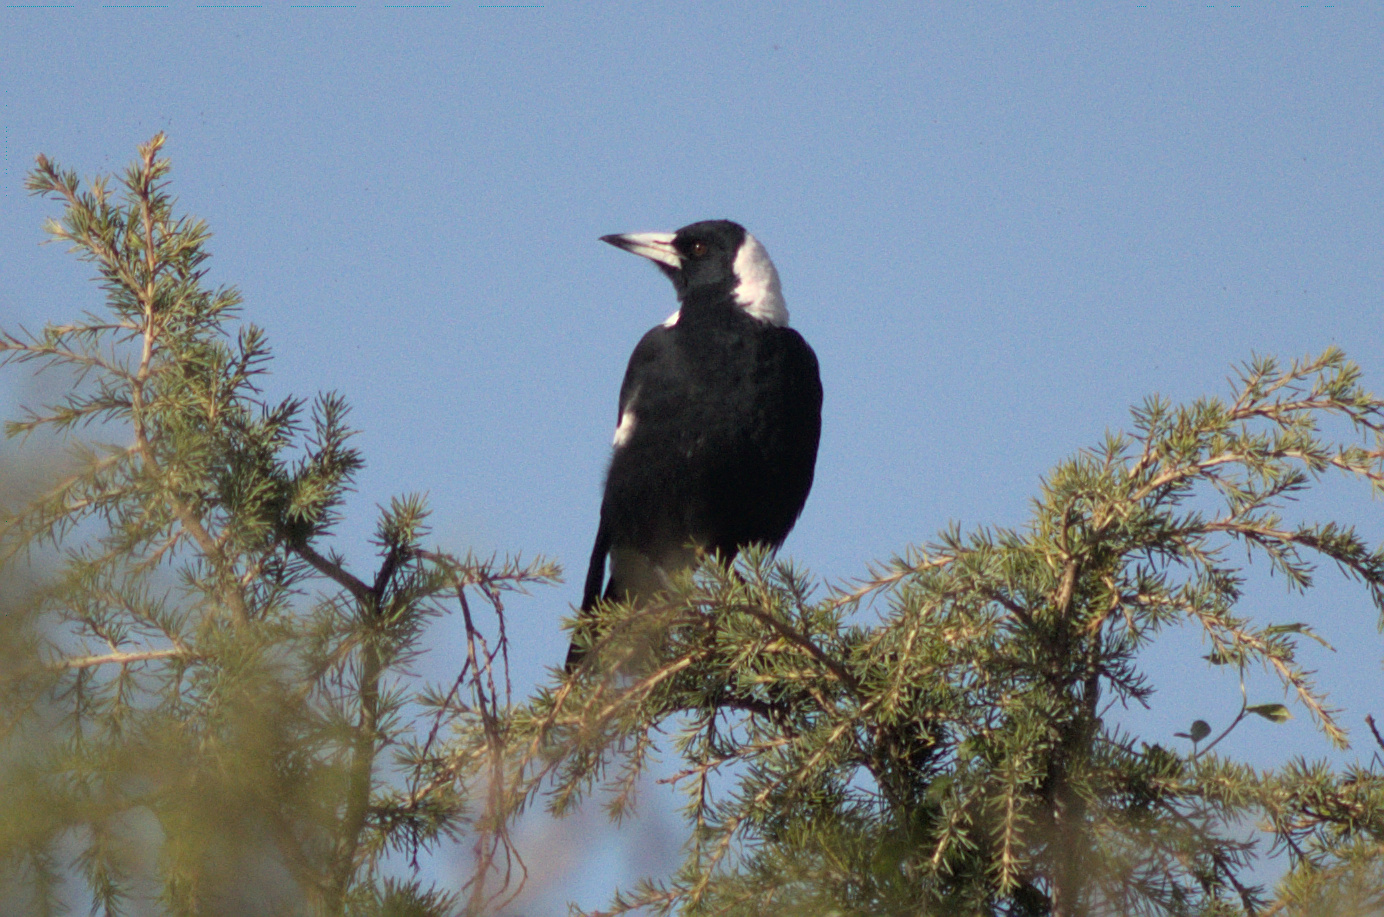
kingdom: Animalia
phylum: Chordata
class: Aves
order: Passeriformes
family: Cracticidae
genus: Gymnorhina
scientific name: Gymnorhina tibicen
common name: Australian magpie
